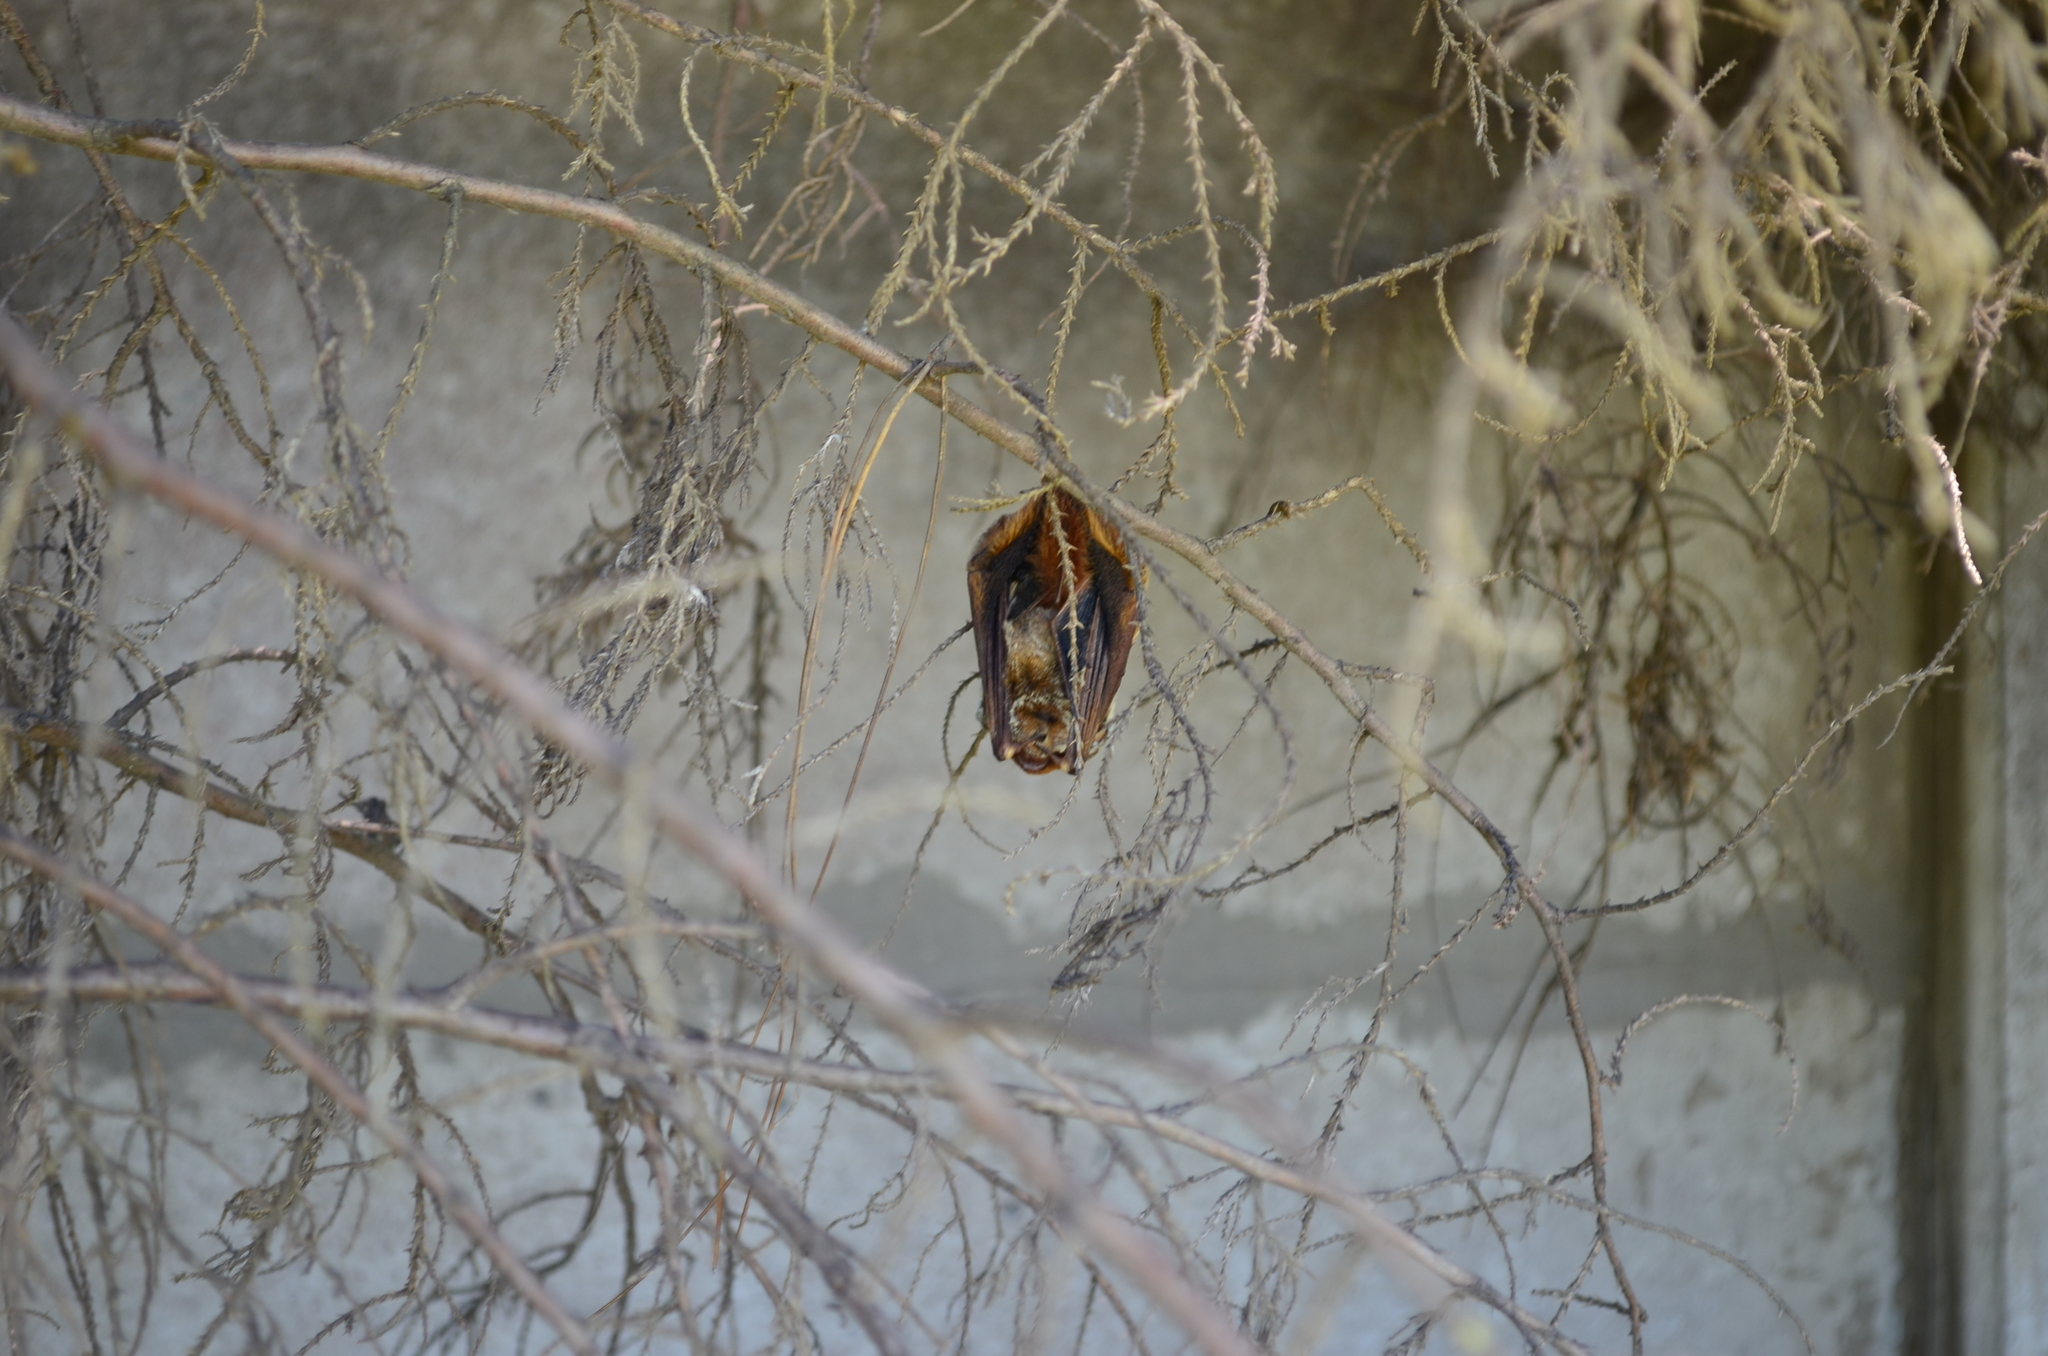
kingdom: Animalia
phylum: Chordata
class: Mammalia
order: Chiroptera
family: Vespertilionidae
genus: Lasiurus
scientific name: Lasiurus blossevillii
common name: Southern red bat
